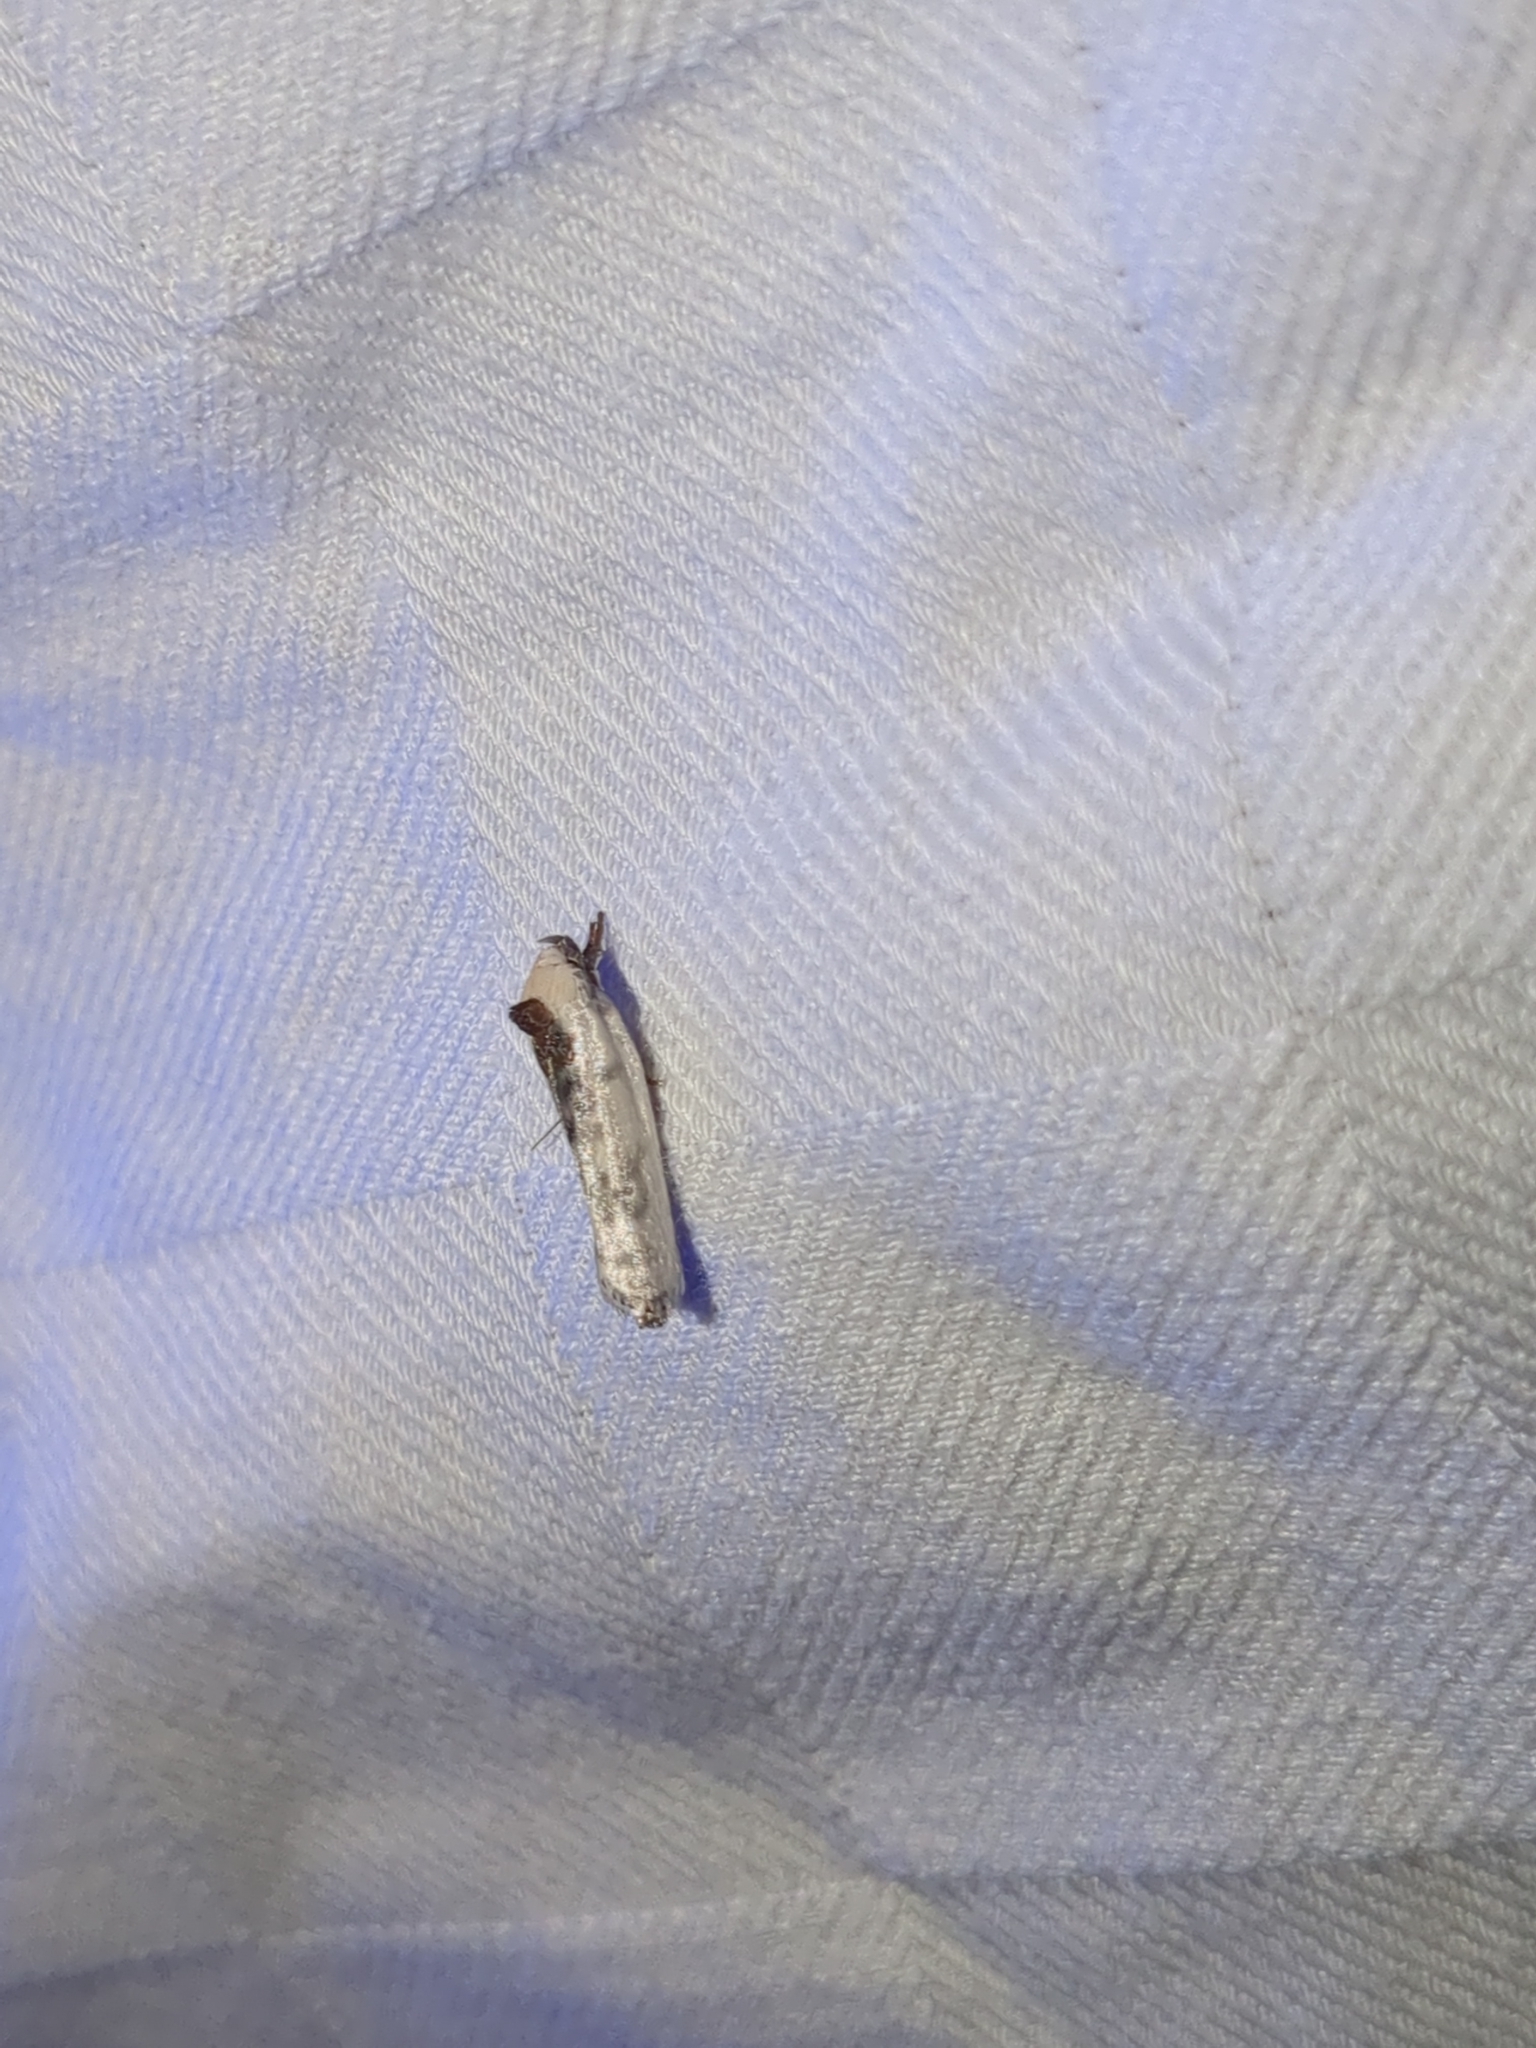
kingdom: Animalia
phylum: Arthropoda
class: Insecta
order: Lepidoptera
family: Depressariidae
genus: Antaeotricha
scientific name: Antaeotricha schlaegeri
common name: Schlaeger's fruitworm moth
